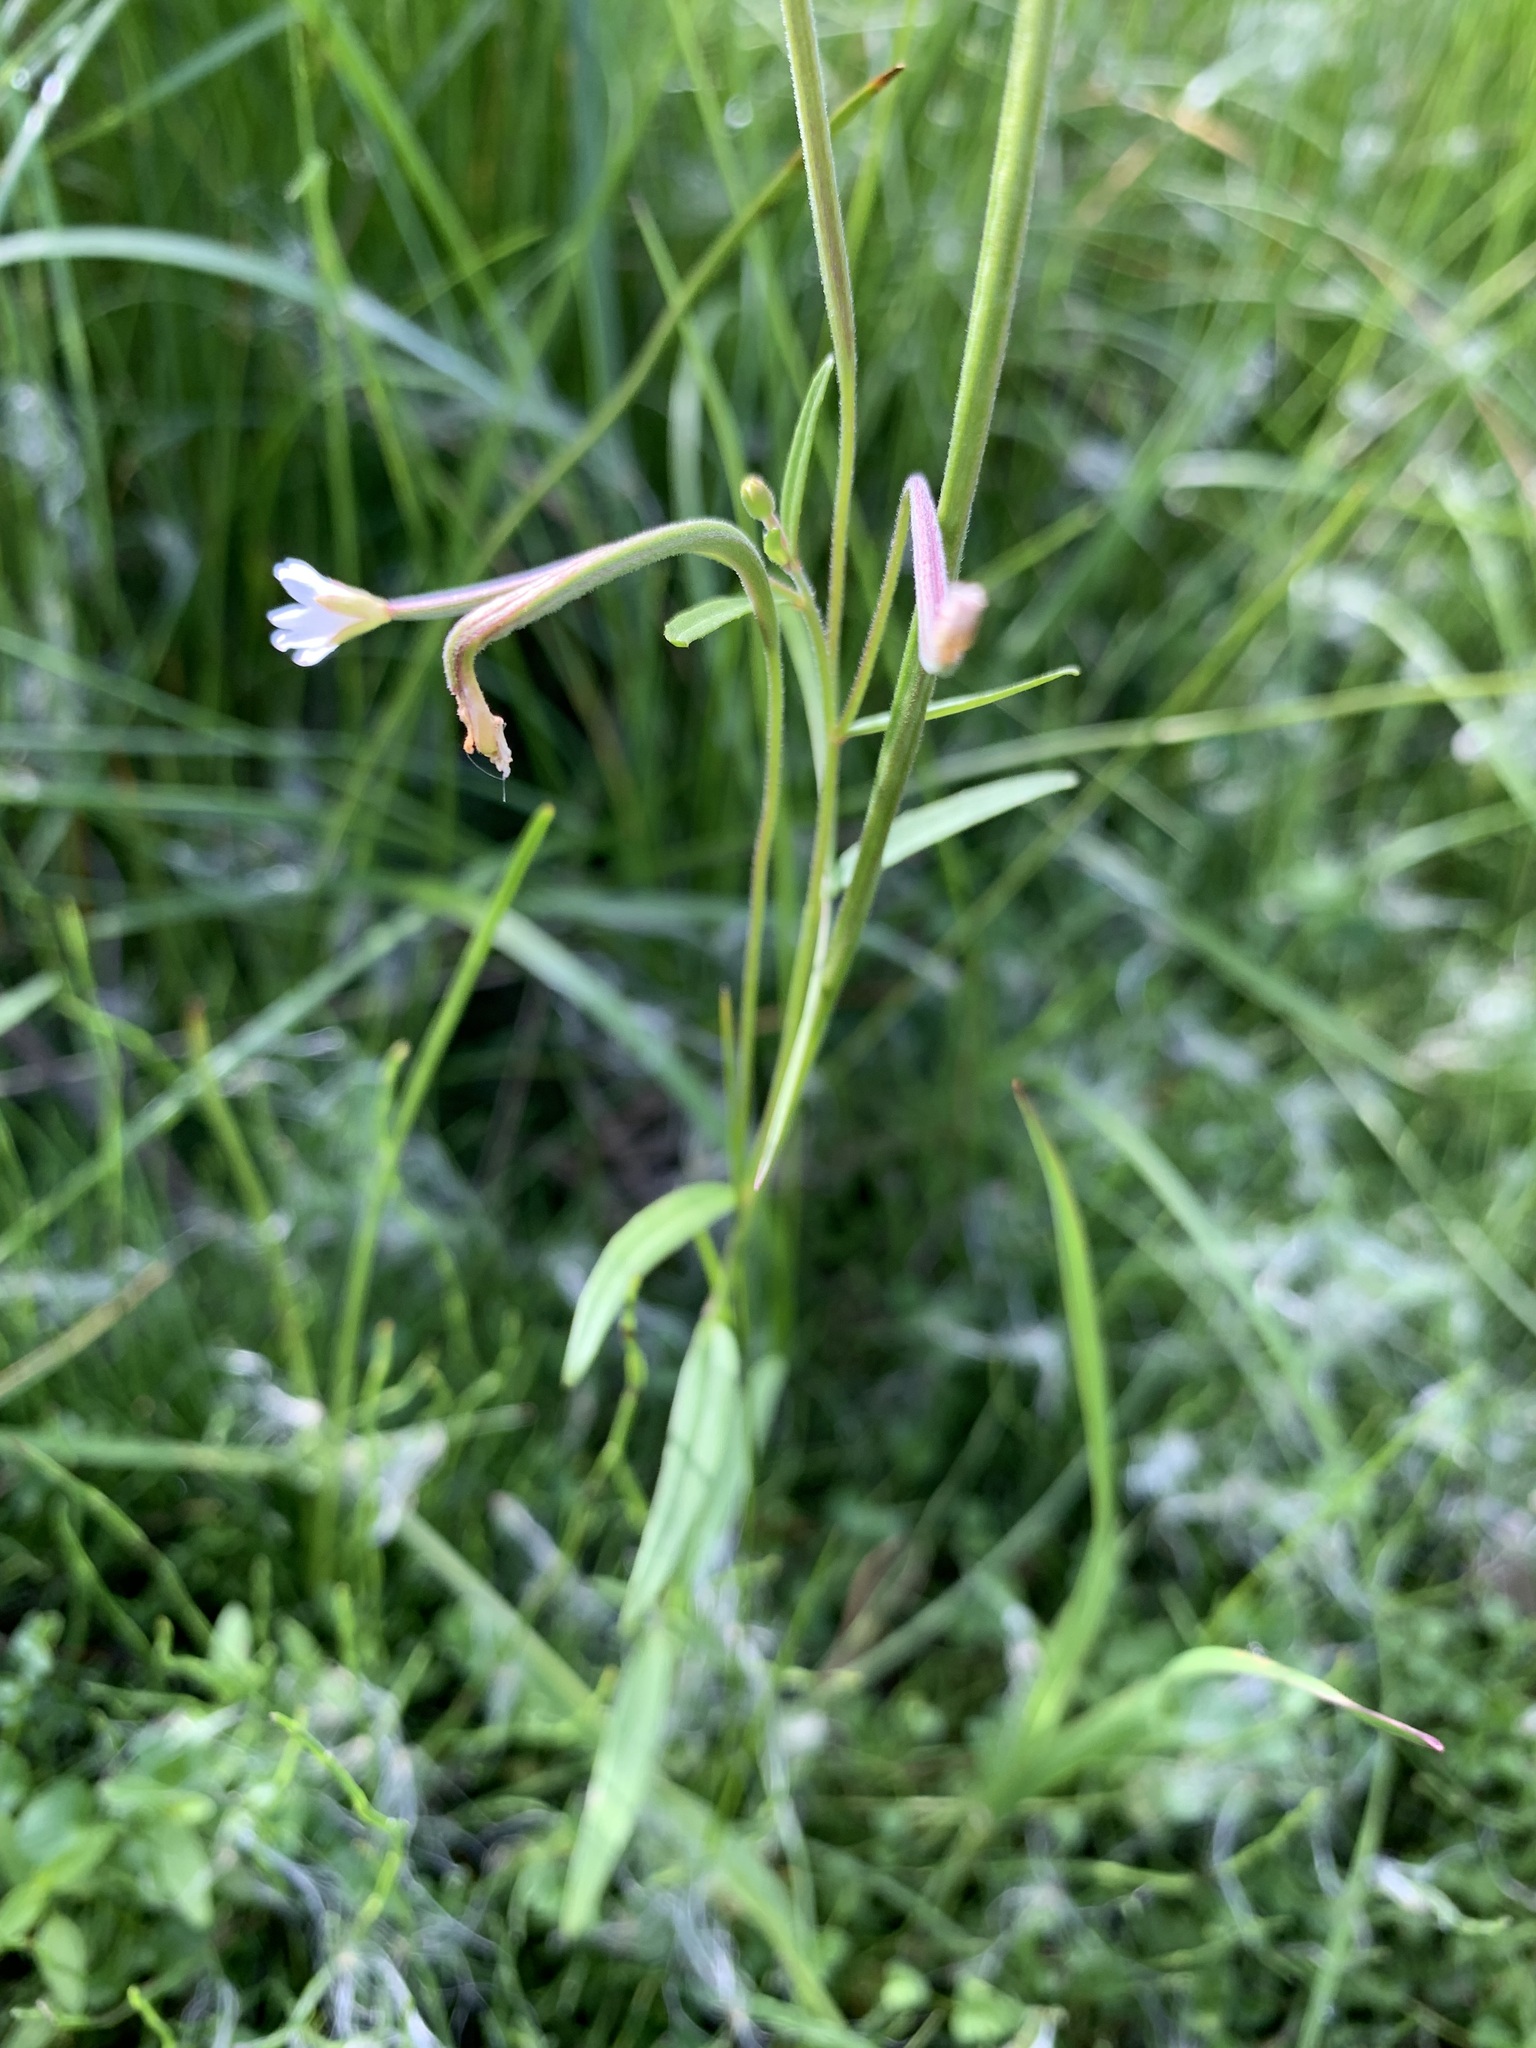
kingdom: Plantae
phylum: Tracheophyta
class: Magnoliopsida
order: Myrtales
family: Onagraceae
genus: Epilobium
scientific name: Epilobium palustre
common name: Marsh willowherb
